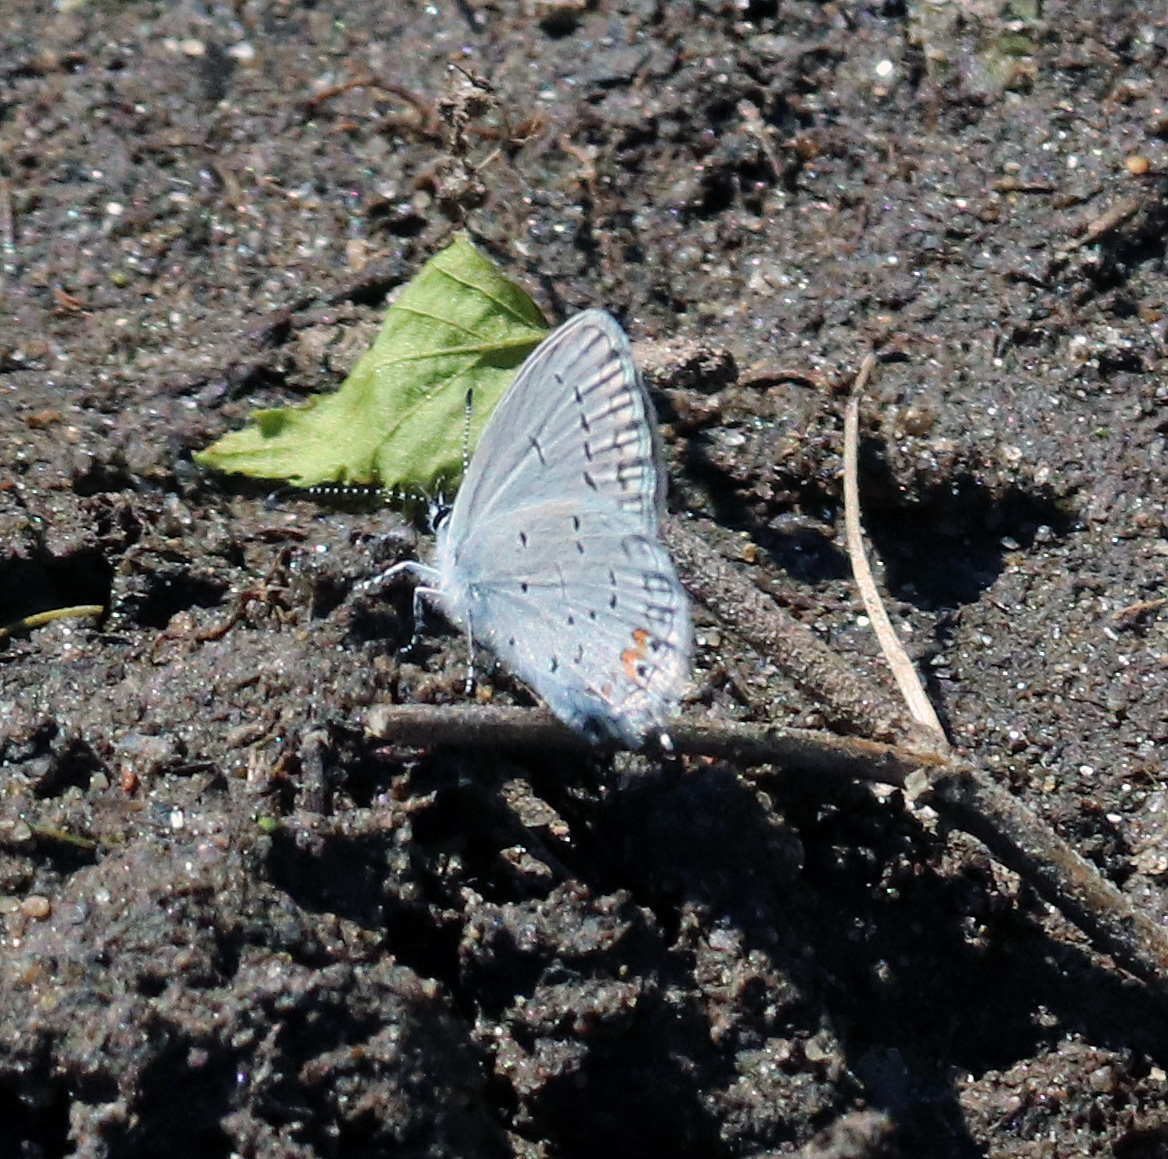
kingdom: Animalia
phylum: Arthropoda
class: Insecta
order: Lepidoptera
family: Lycaenidae
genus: Elkalyce
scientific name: Elkalyce comyntas
